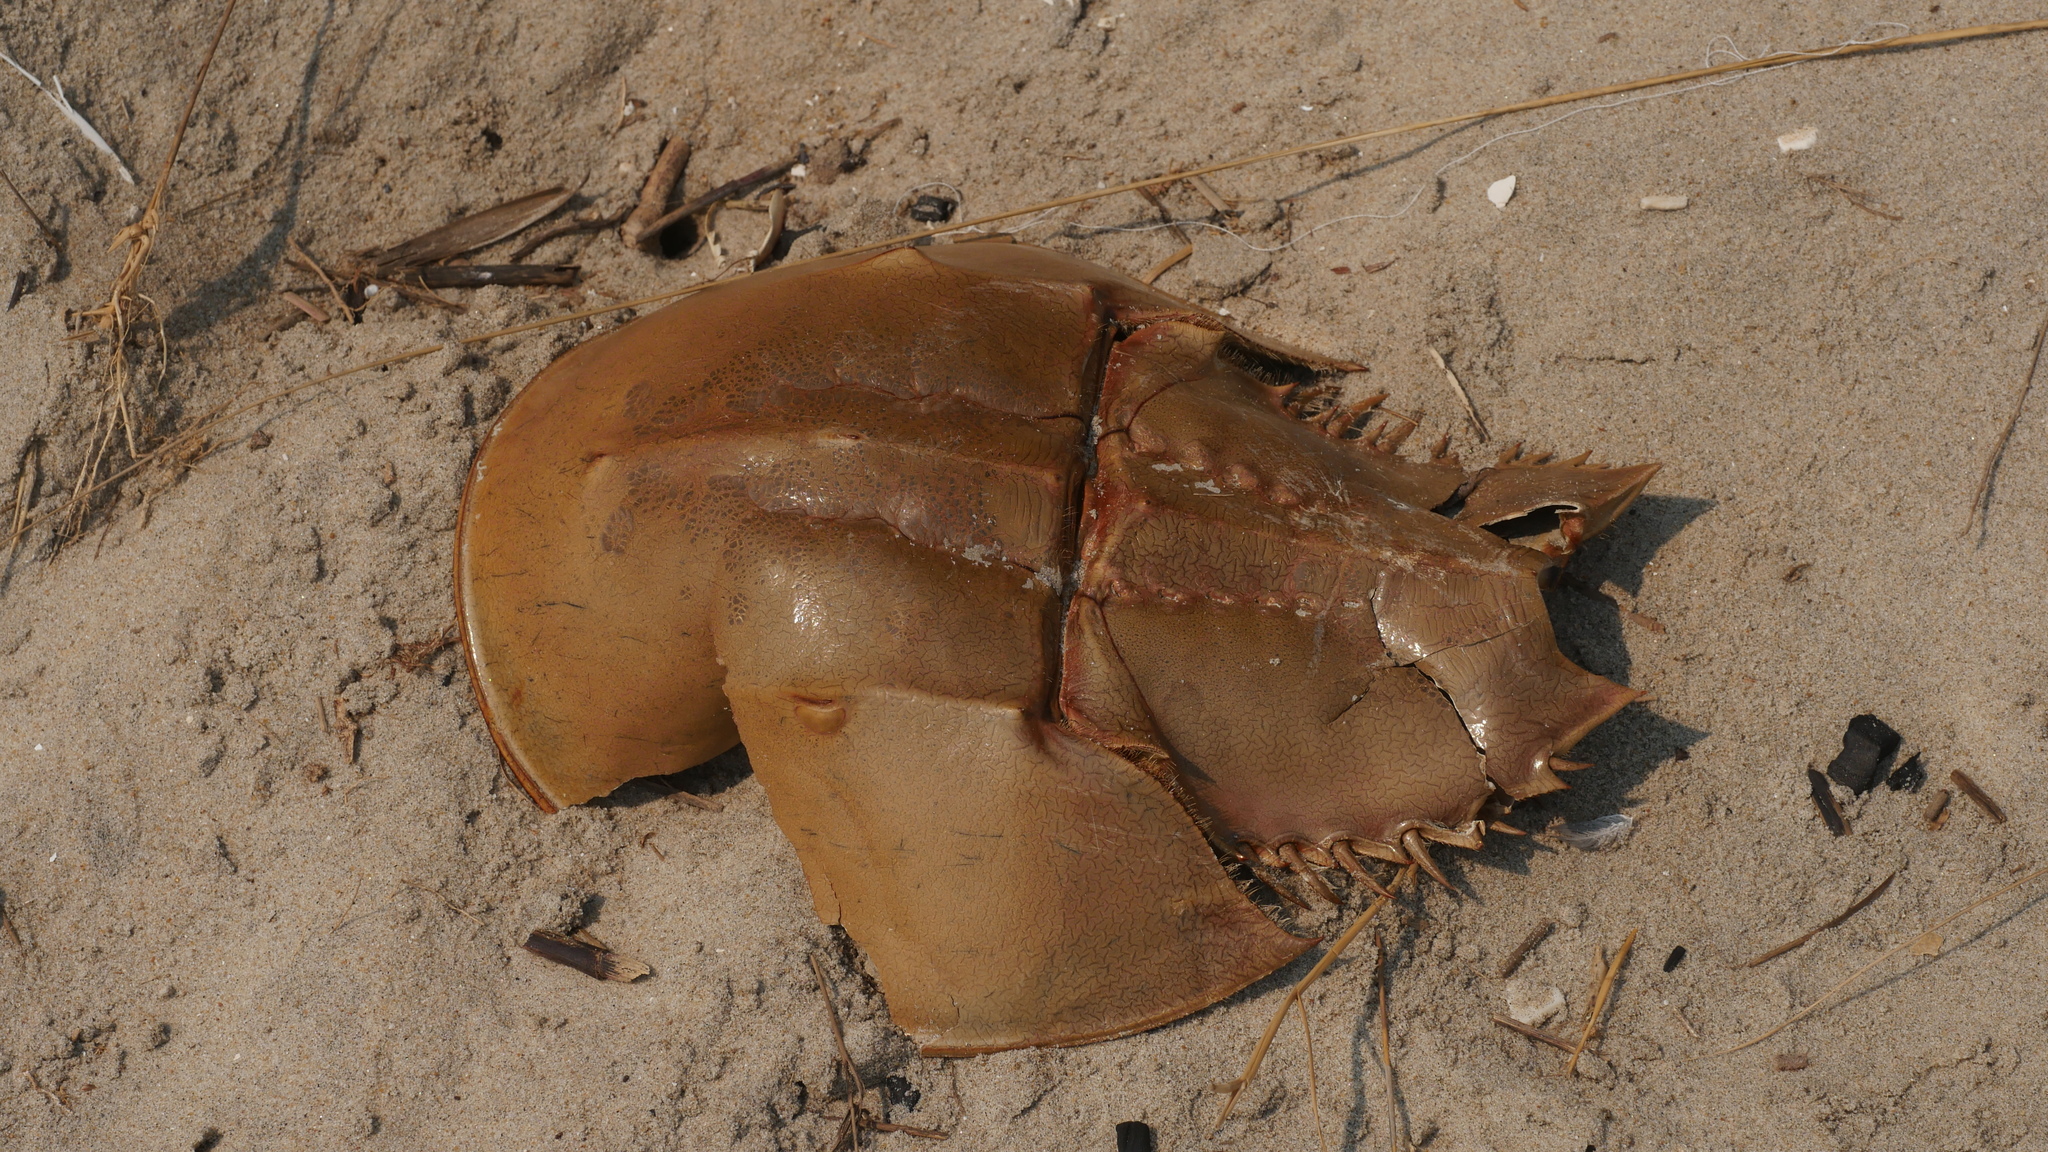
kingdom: Animalia
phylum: Arthropoda
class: Merostomata
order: Xiphosurida
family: Limulidae
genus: Limulus
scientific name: Limulus polyphemus
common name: Horseshoe crab
